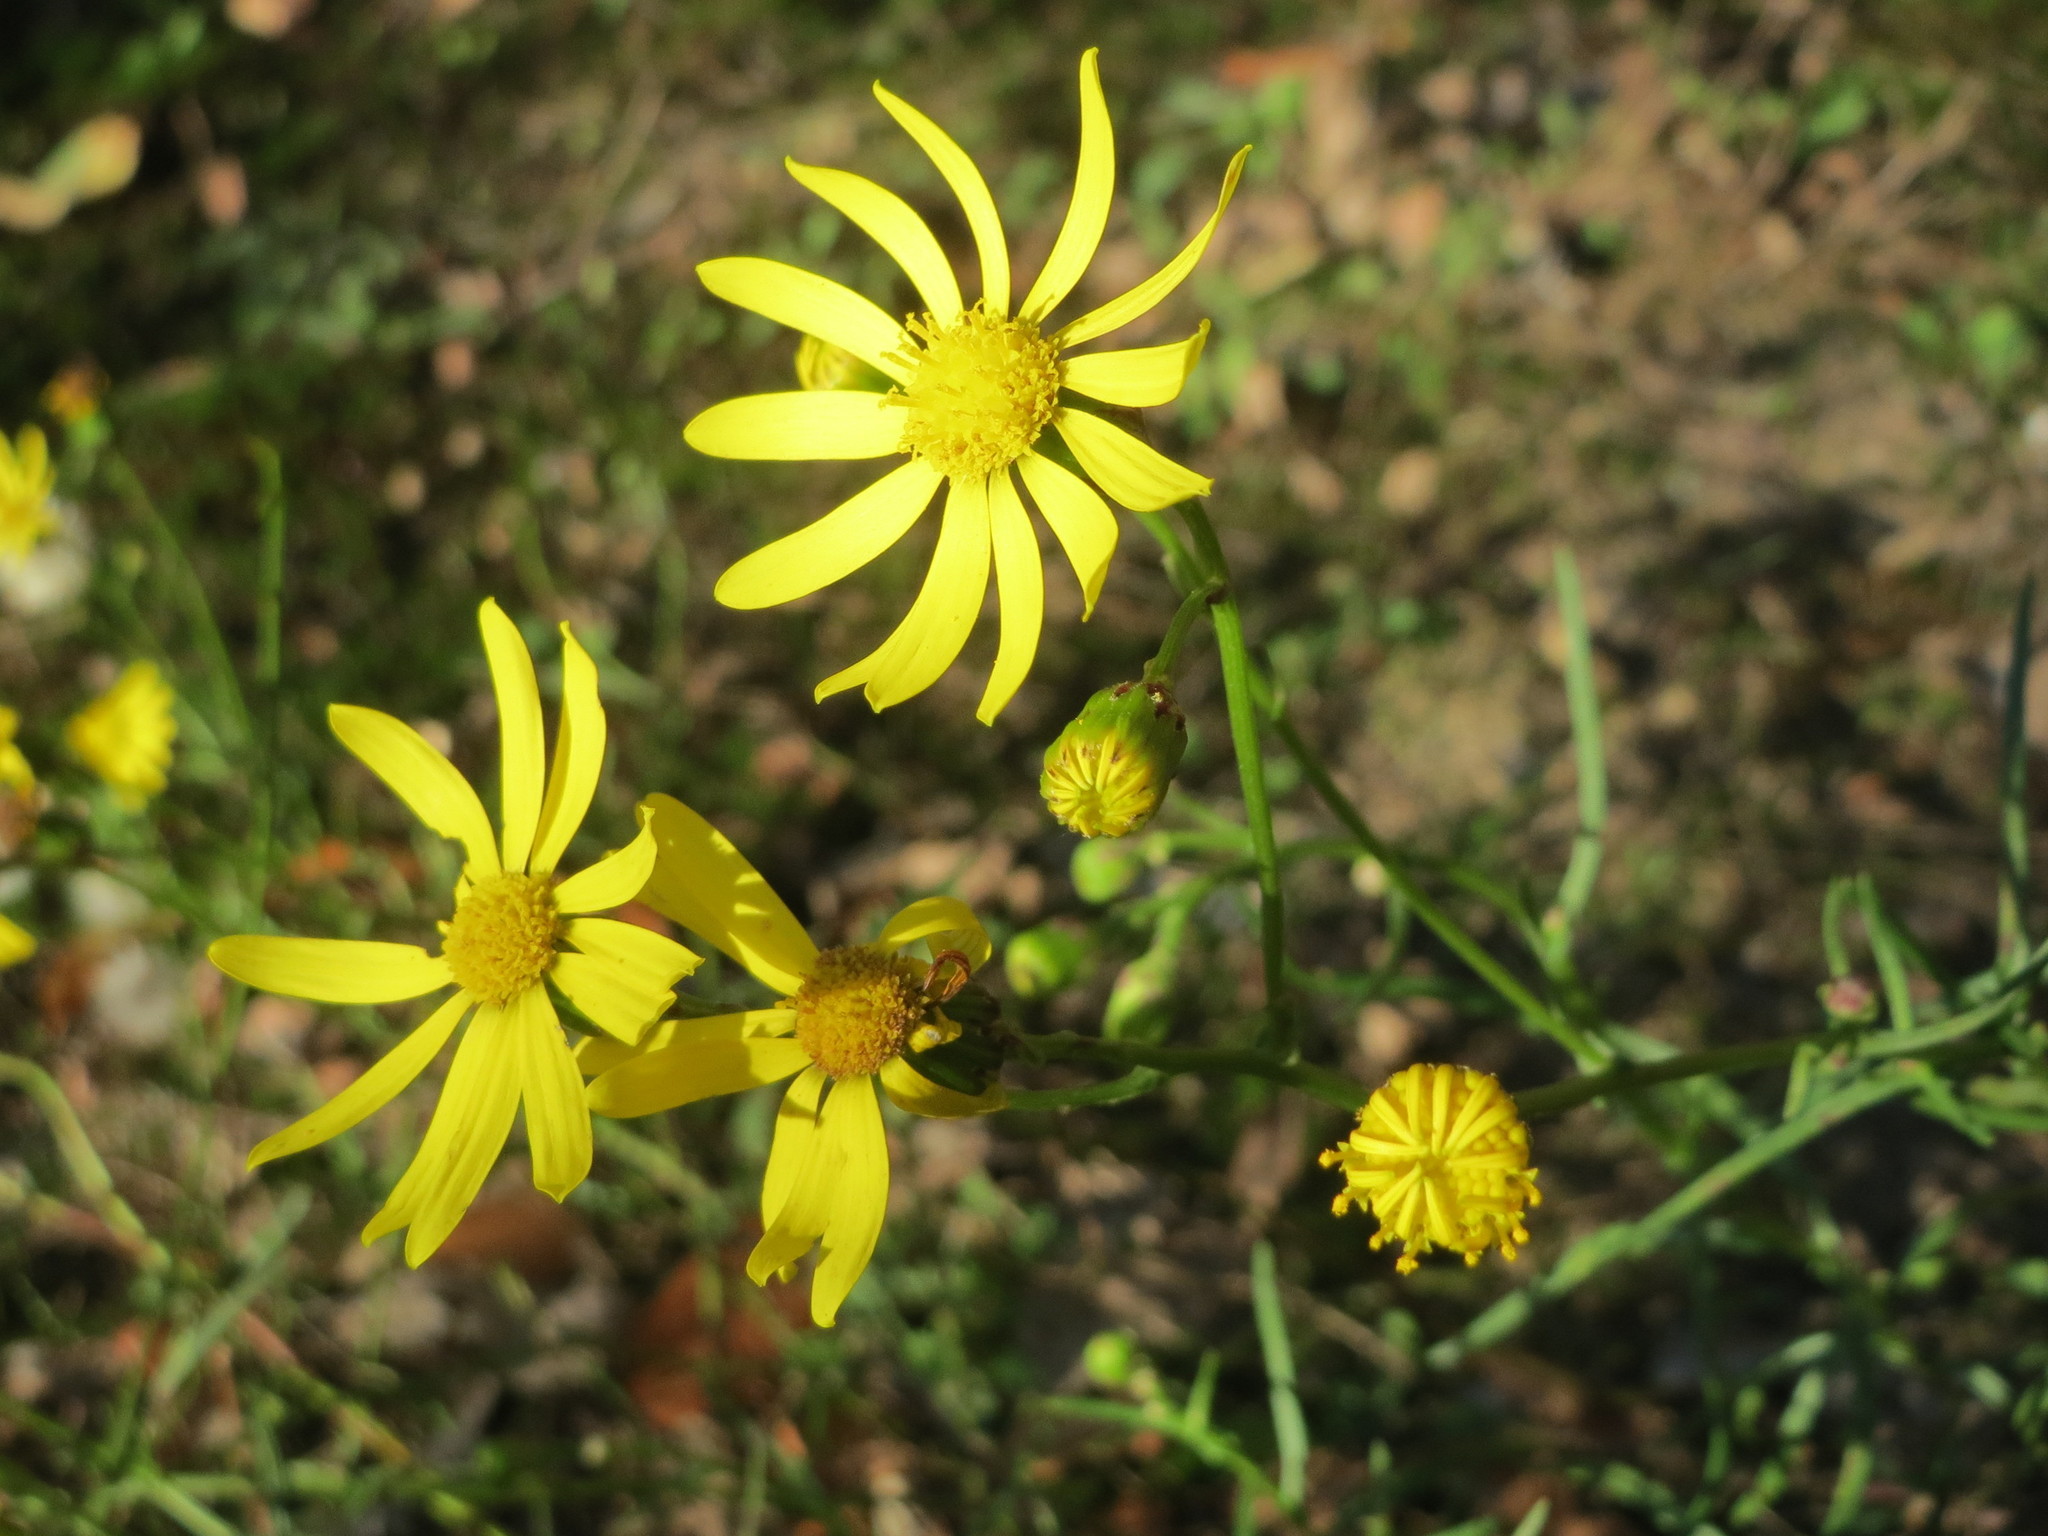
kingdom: Plantae
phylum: Tracheophyta
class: Magnoliopsida
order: Asterales
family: Asteraceae
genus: Senecio
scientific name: Senecio inaequidens
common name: Narrow-leaved ragwort
